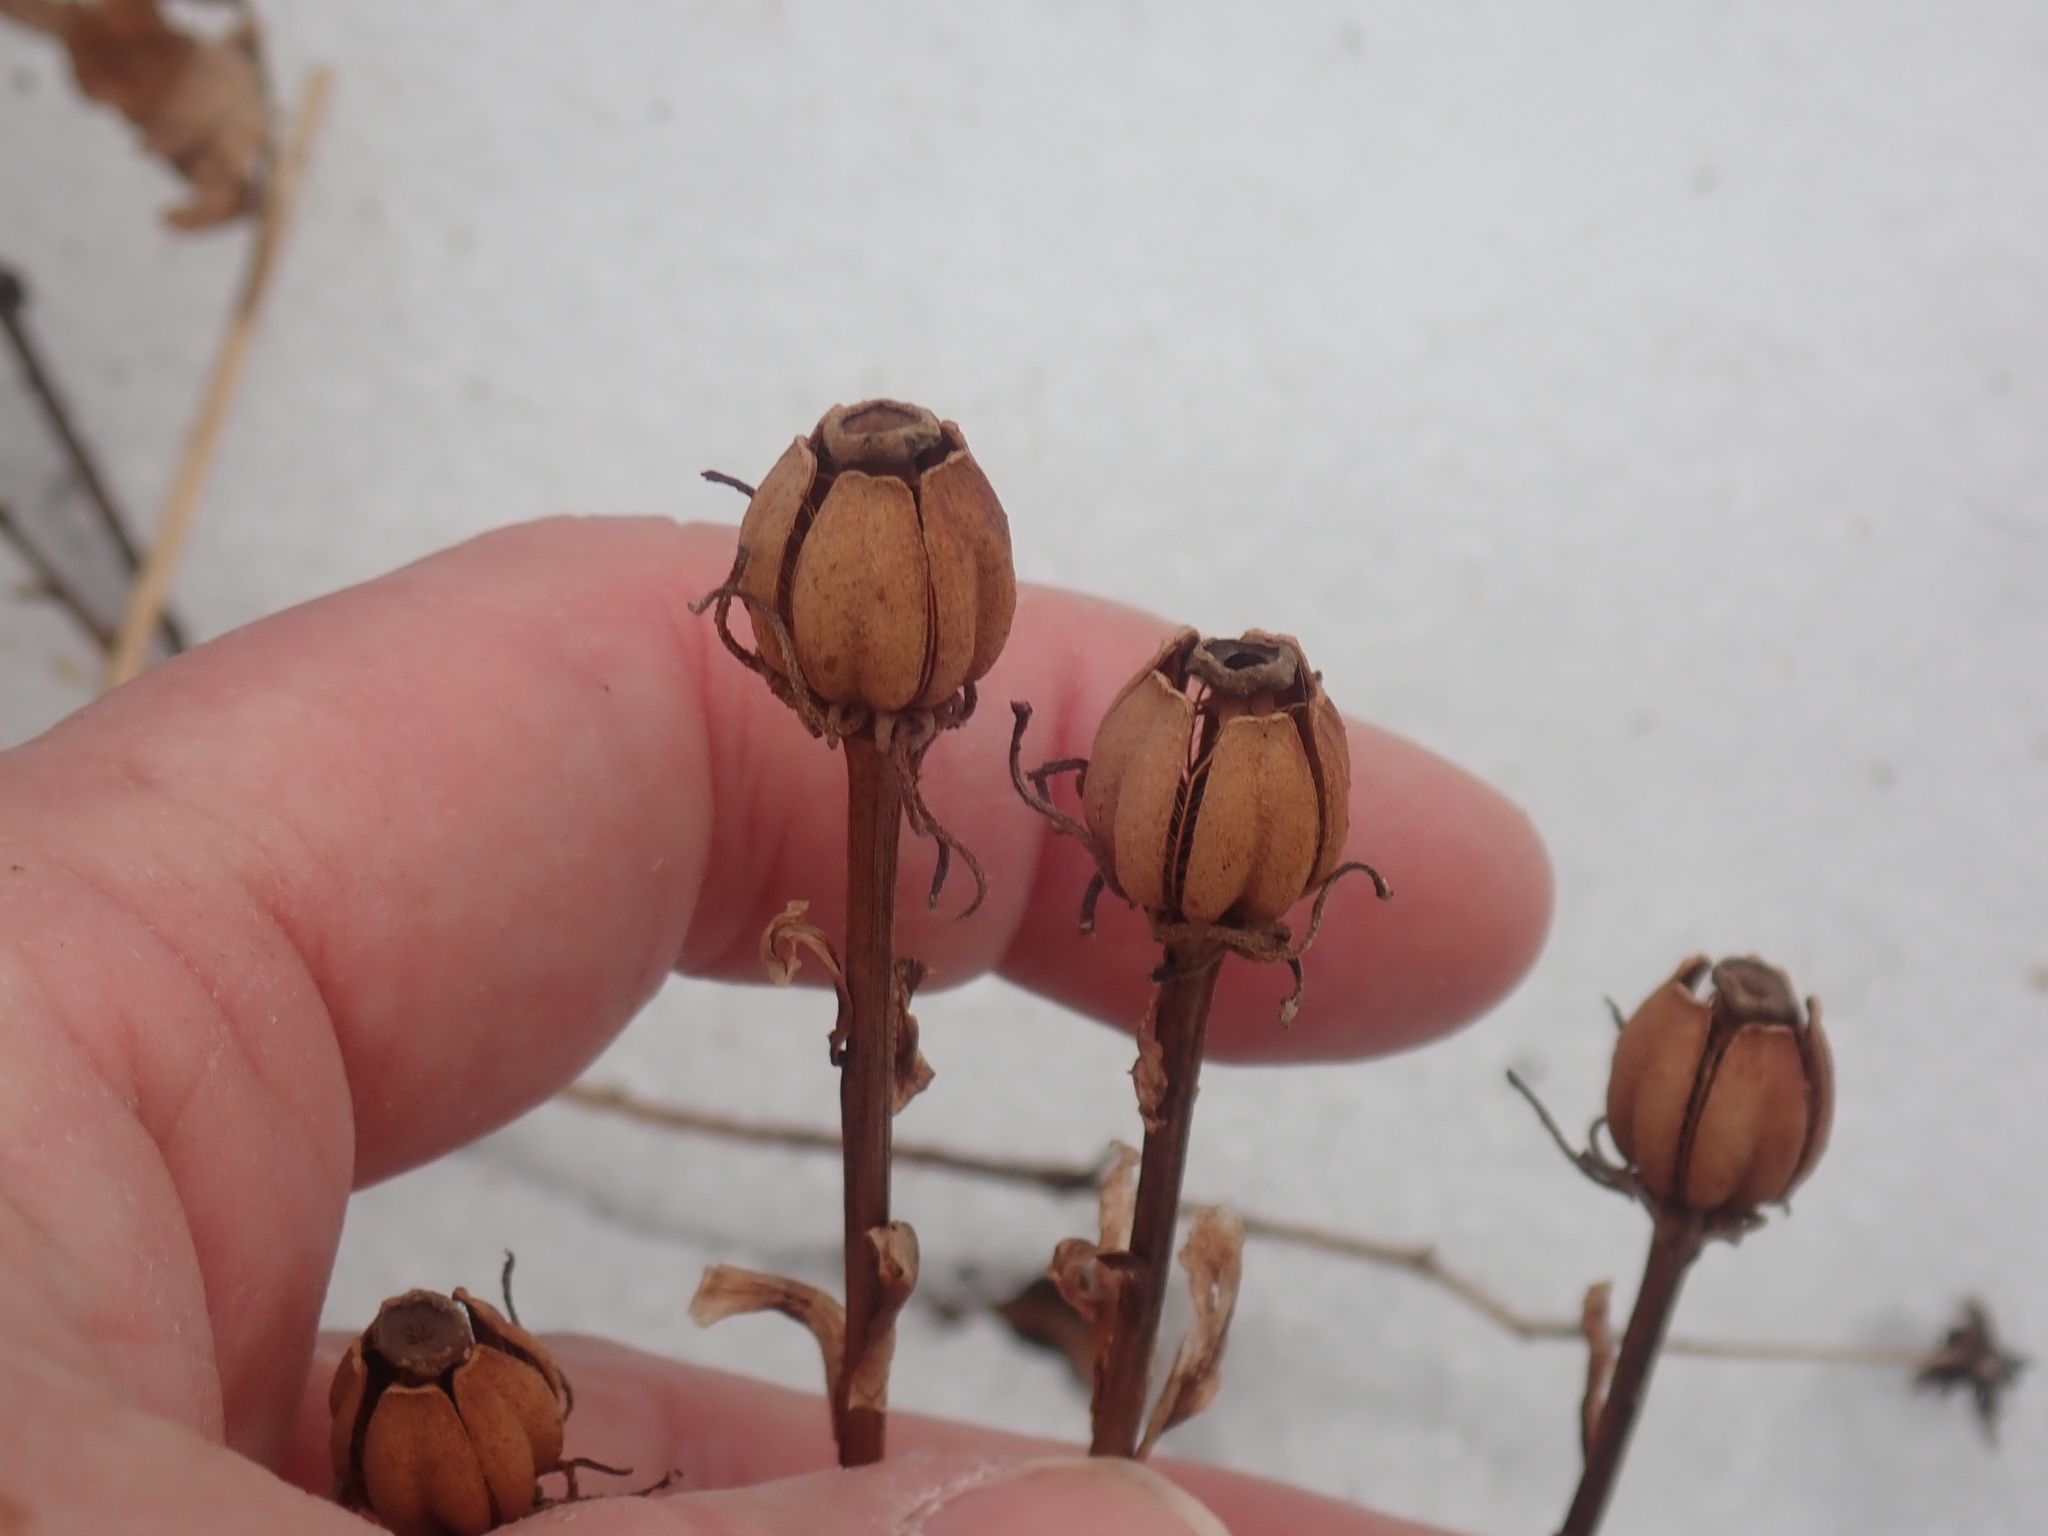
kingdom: Plantae
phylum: Tracheophyta
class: Magnoliopsida
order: Ericales
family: Ericaceae
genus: Monotropa
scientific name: Monotropa uniflora
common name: Convulsion root
